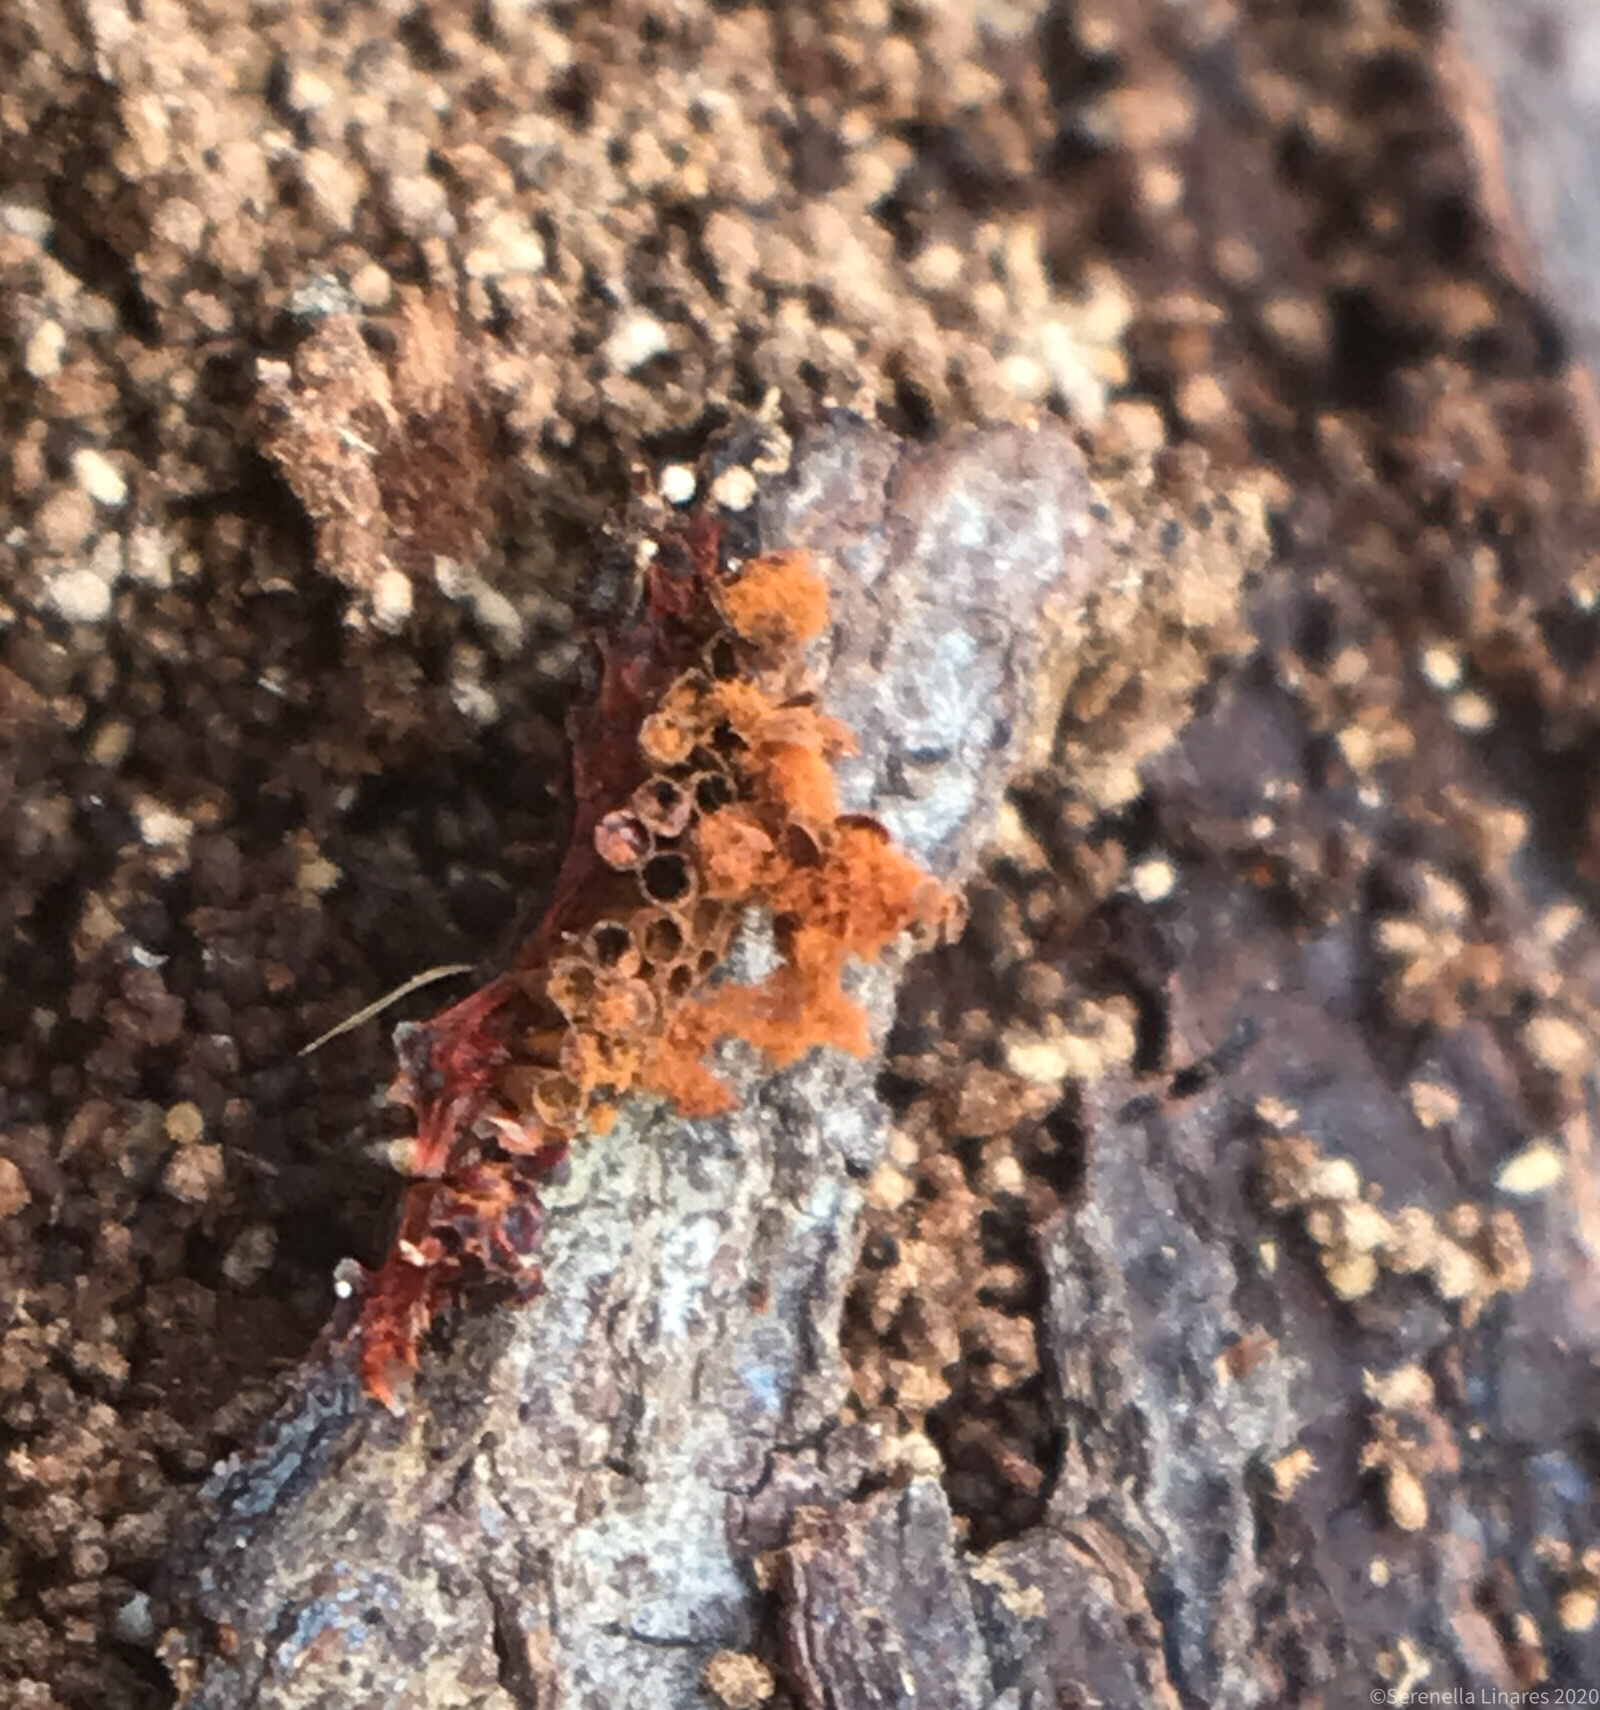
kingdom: Protozoa
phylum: Mycetozoa
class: Myxomycetes
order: Trichiales
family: Trichiaceae
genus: Metatrichia
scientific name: Metatrichia vesparia
